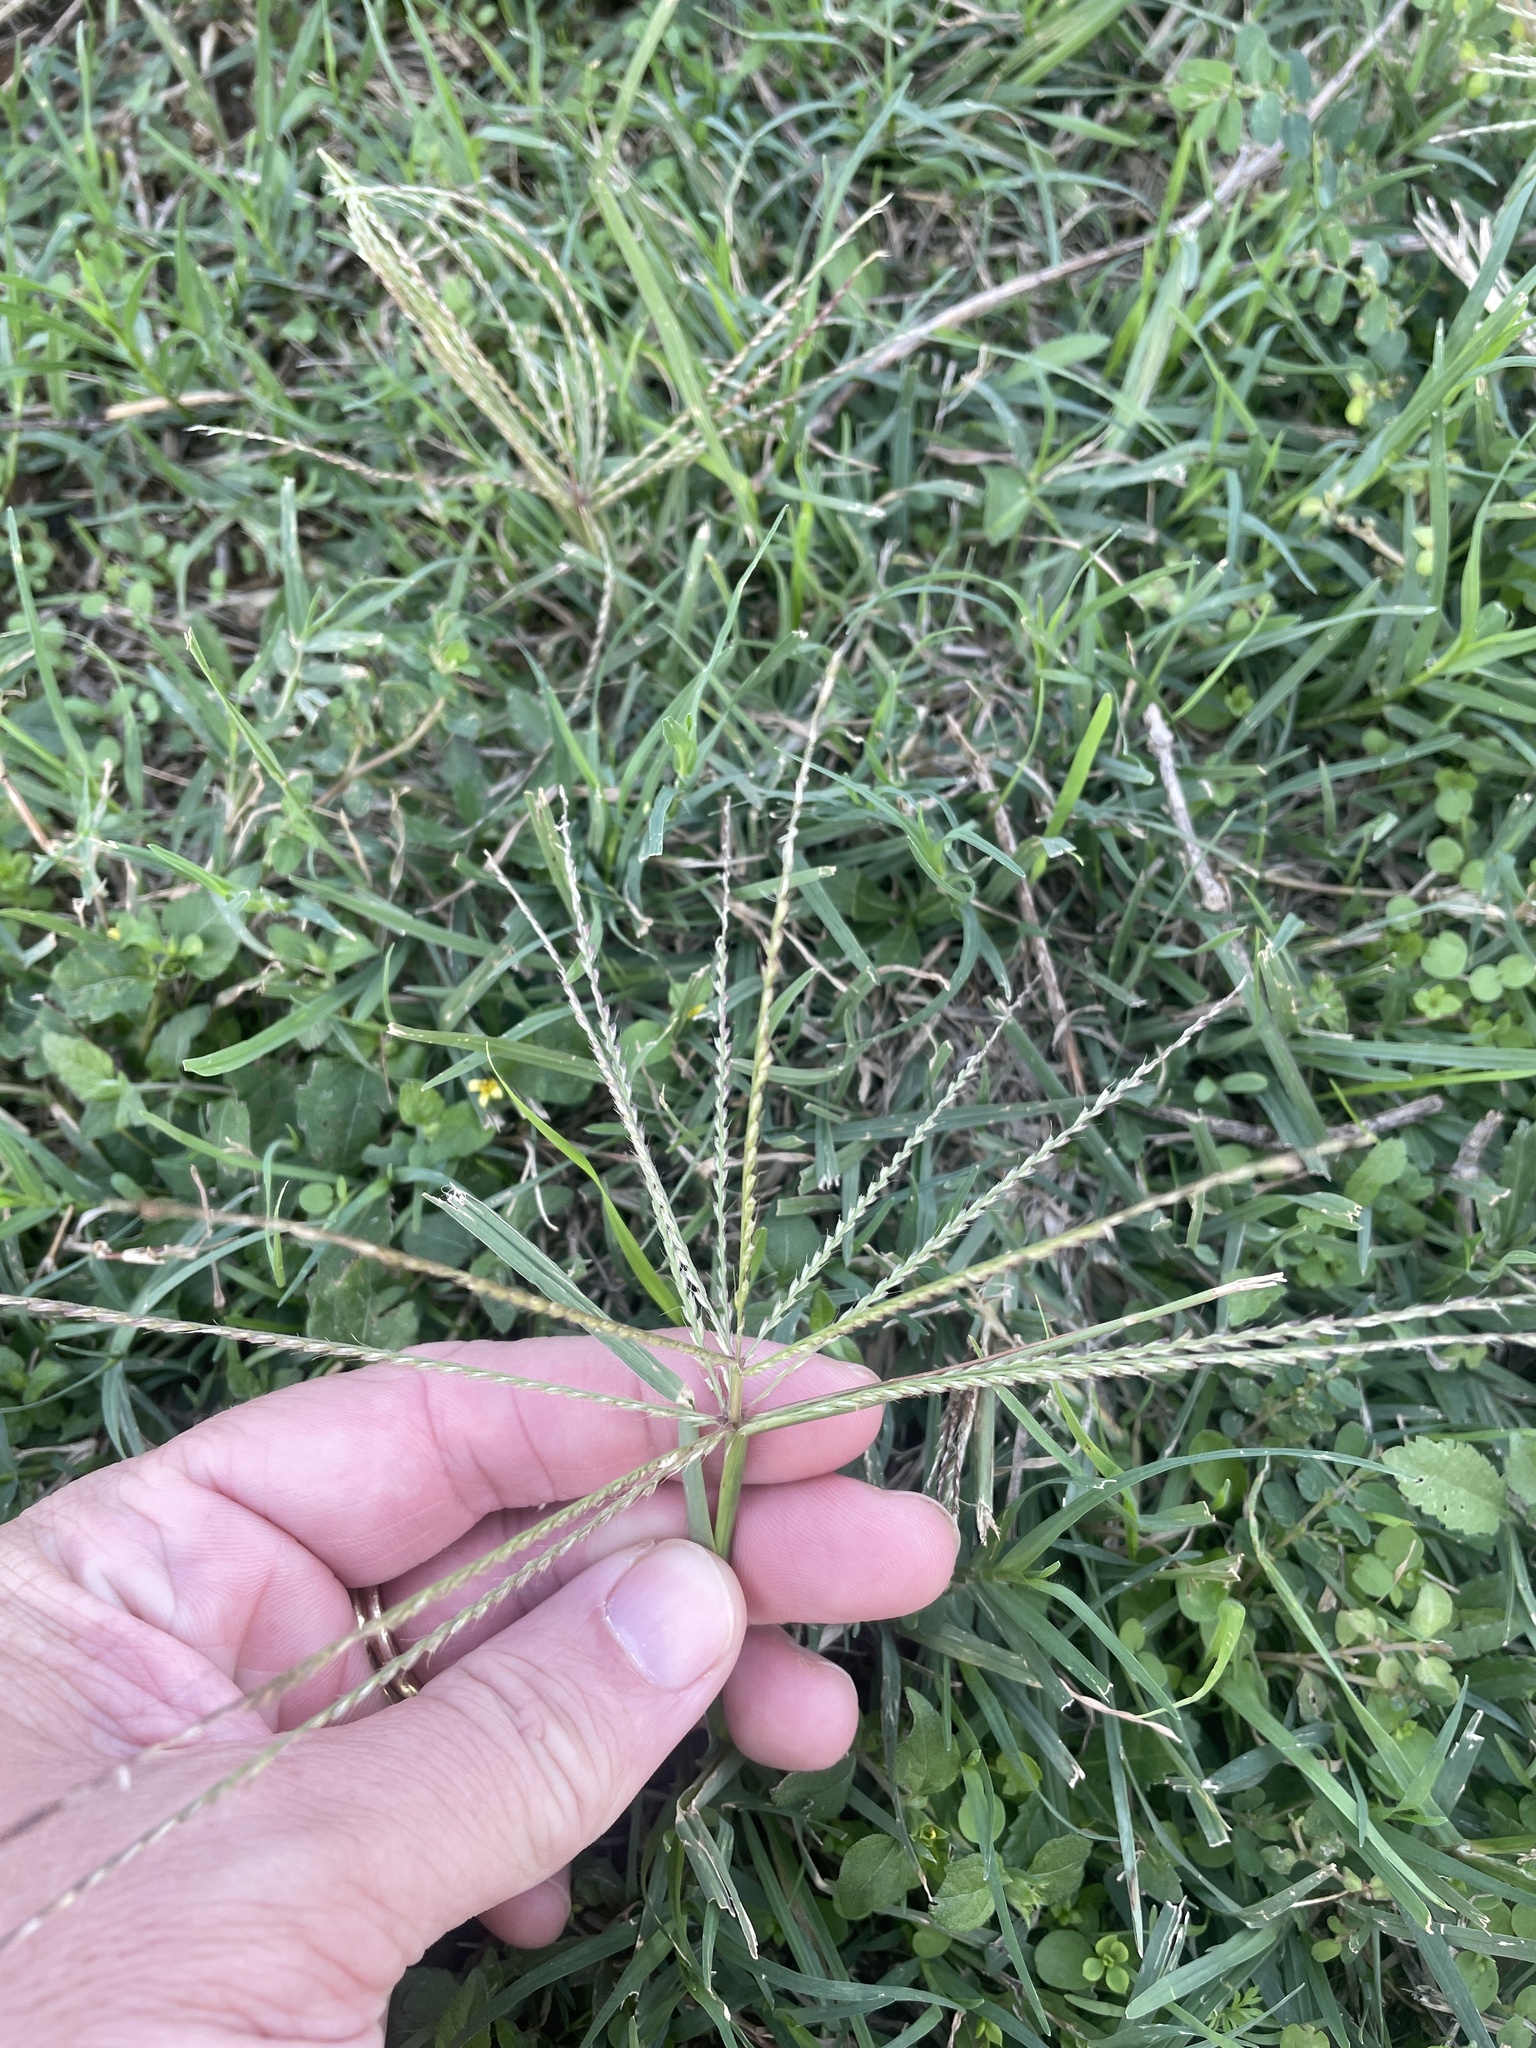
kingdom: Plantae
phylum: Tracheophyta
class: Liliopsida
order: Poales
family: Poaceae
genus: Chloris
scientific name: Chloris verticillata
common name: Tumble windmill grass
